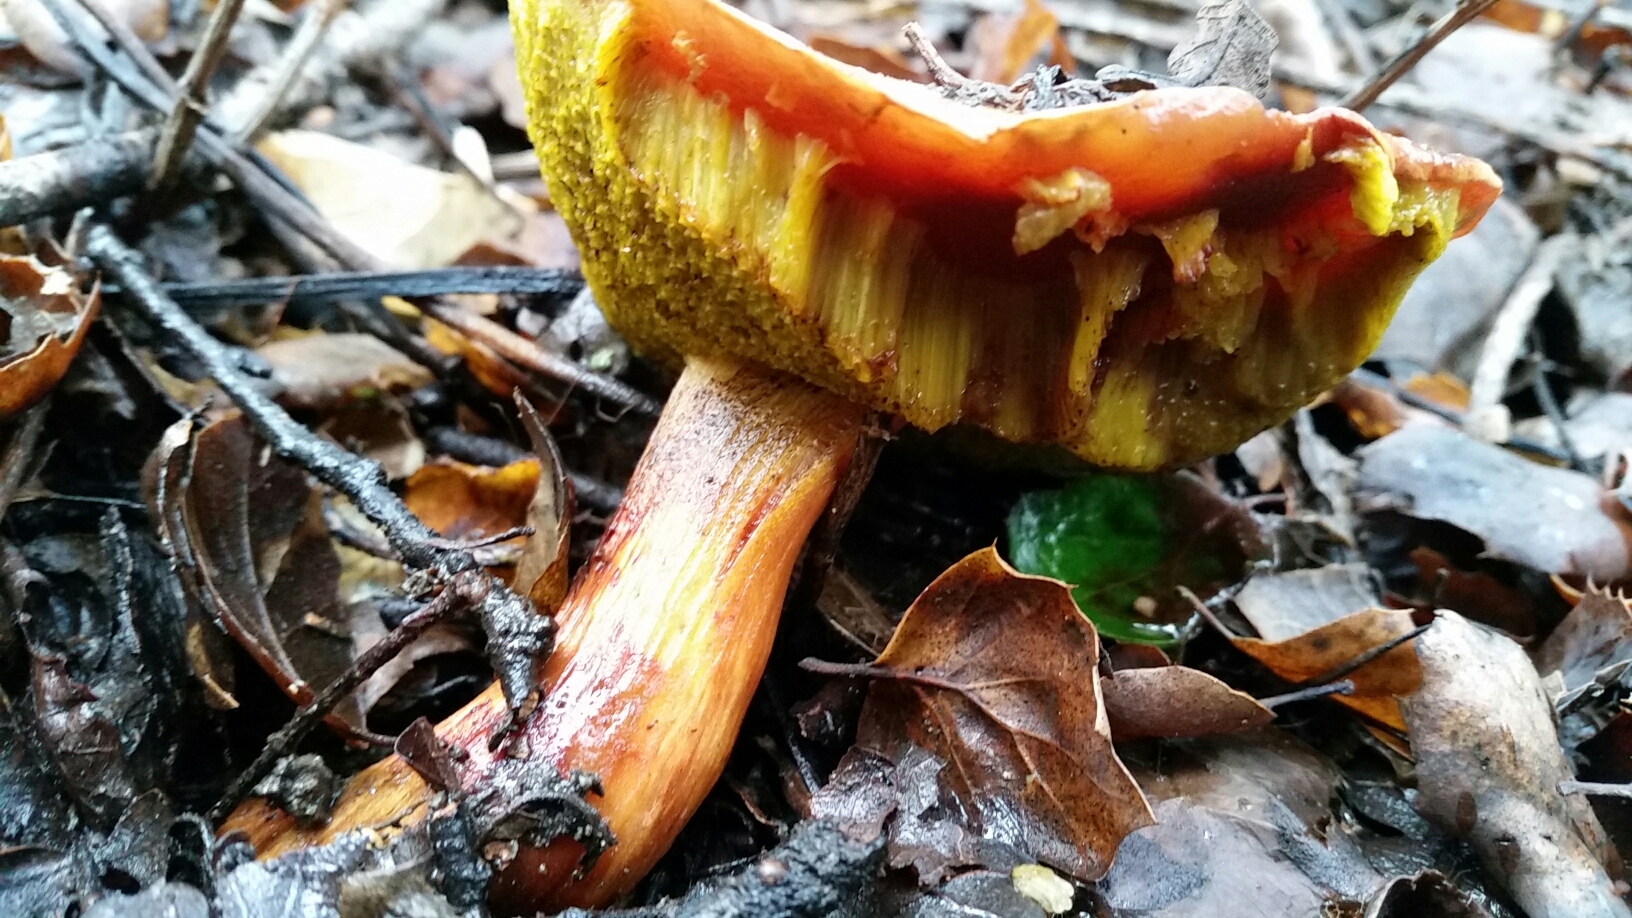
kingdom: Fungi
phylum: Basidiomycota
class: Agaricomycetes
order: Boletales
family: Boletaceae
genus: Aureoboletus
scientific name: Aureoboletus flaviporus
